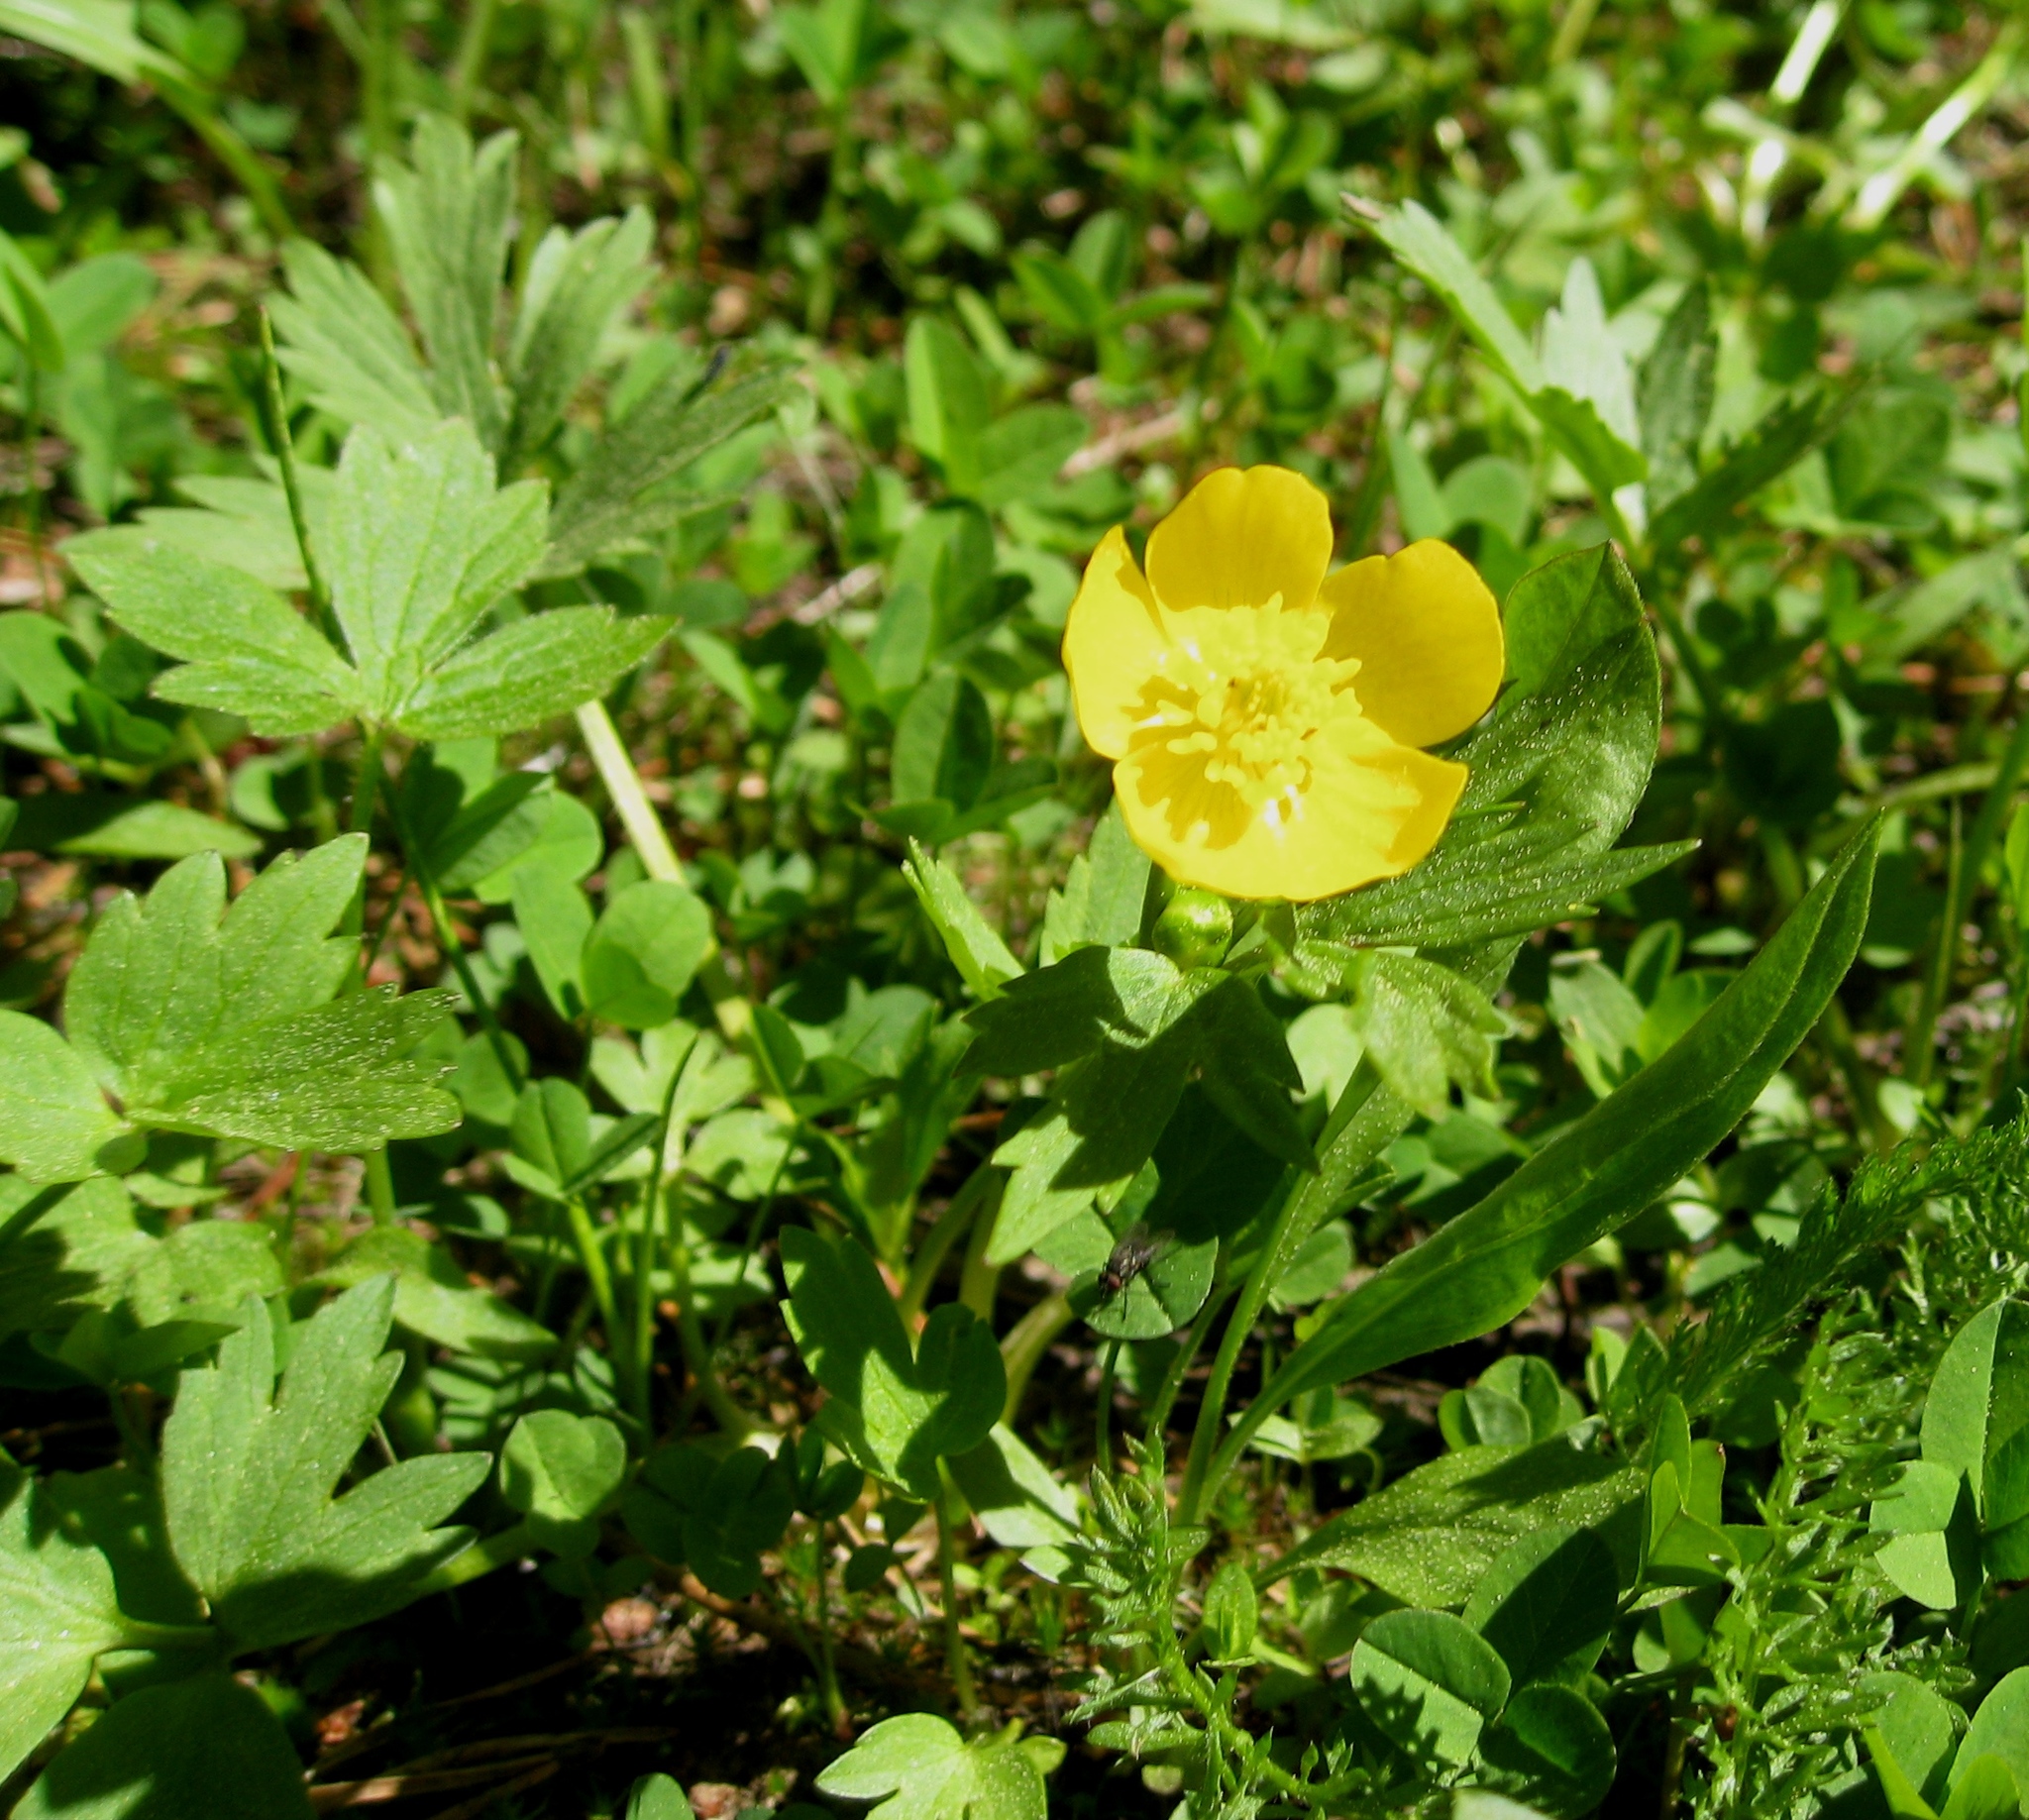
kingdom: Plantae
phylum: Tracheophyta
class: Magnoliopsida
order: Ranunculales
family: Ranunculaceae
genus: Ranunculus
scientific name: Ranunculus orthorhynchus
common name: Straight-beak buttercup
